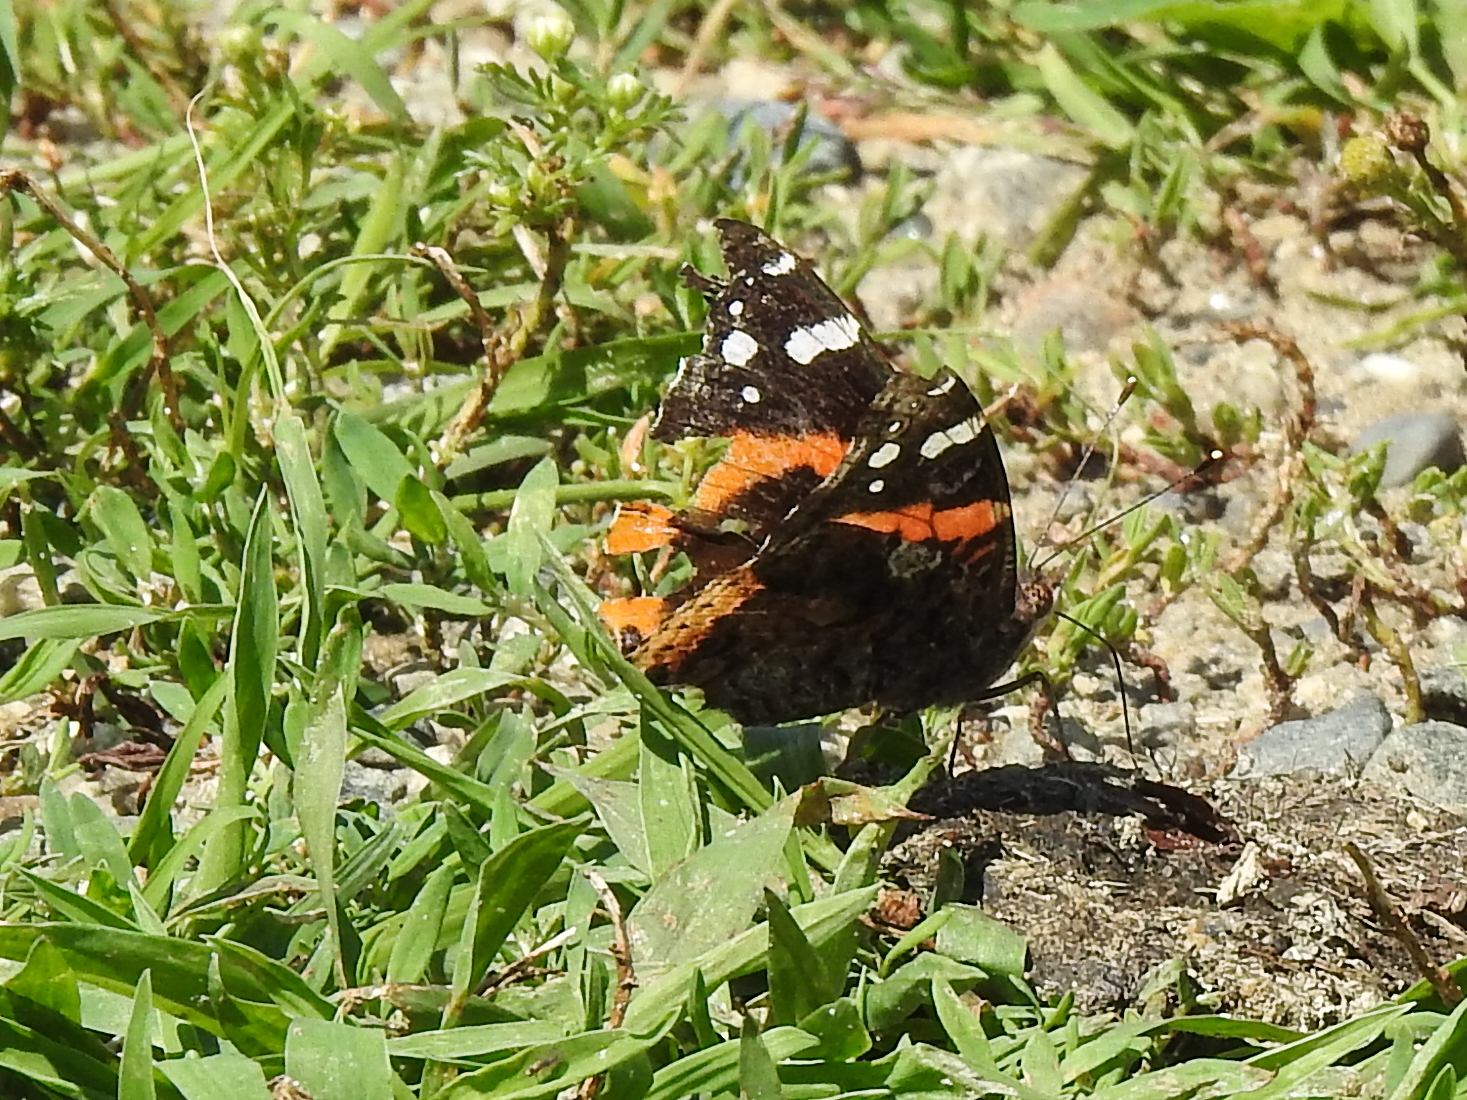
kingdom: Animalia
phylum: Arthropoda
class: Insecta
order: Lepidoptera
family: Nymphalidae
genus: Vanessa
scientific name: Vanessa atalanta
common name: Red admiral
